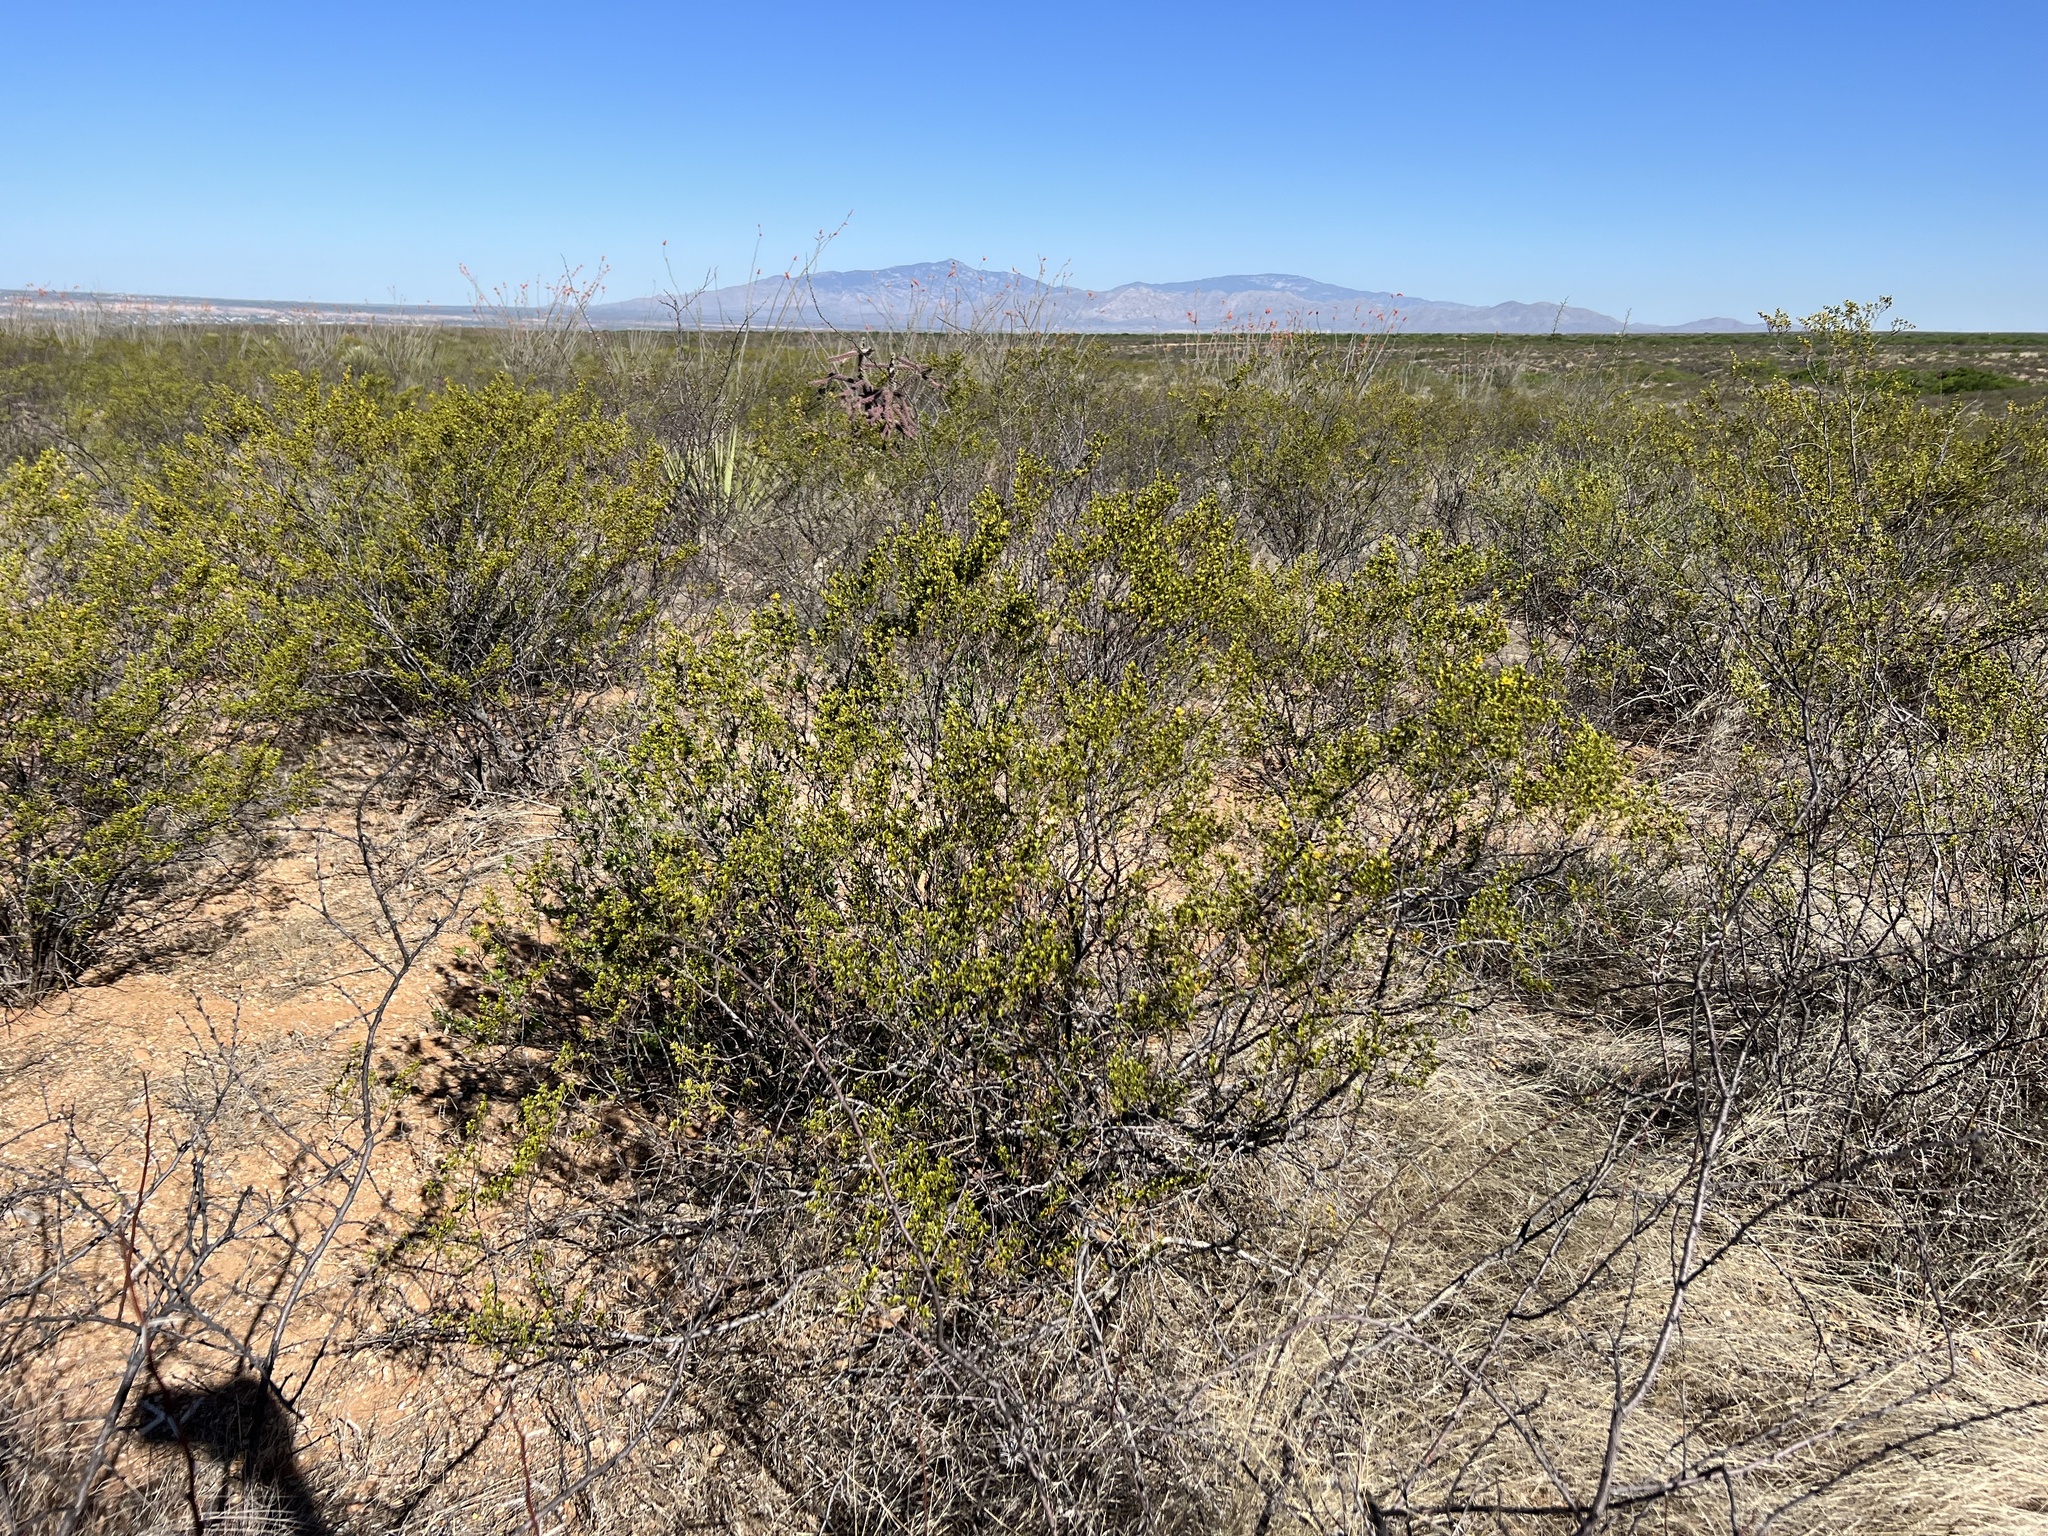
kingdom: Plantae
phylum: Tracheophyta
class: Magnoliopsida
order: Zygophyllales
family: Zygophyllaceae
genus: Larrea
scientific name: Larrea tridentata
